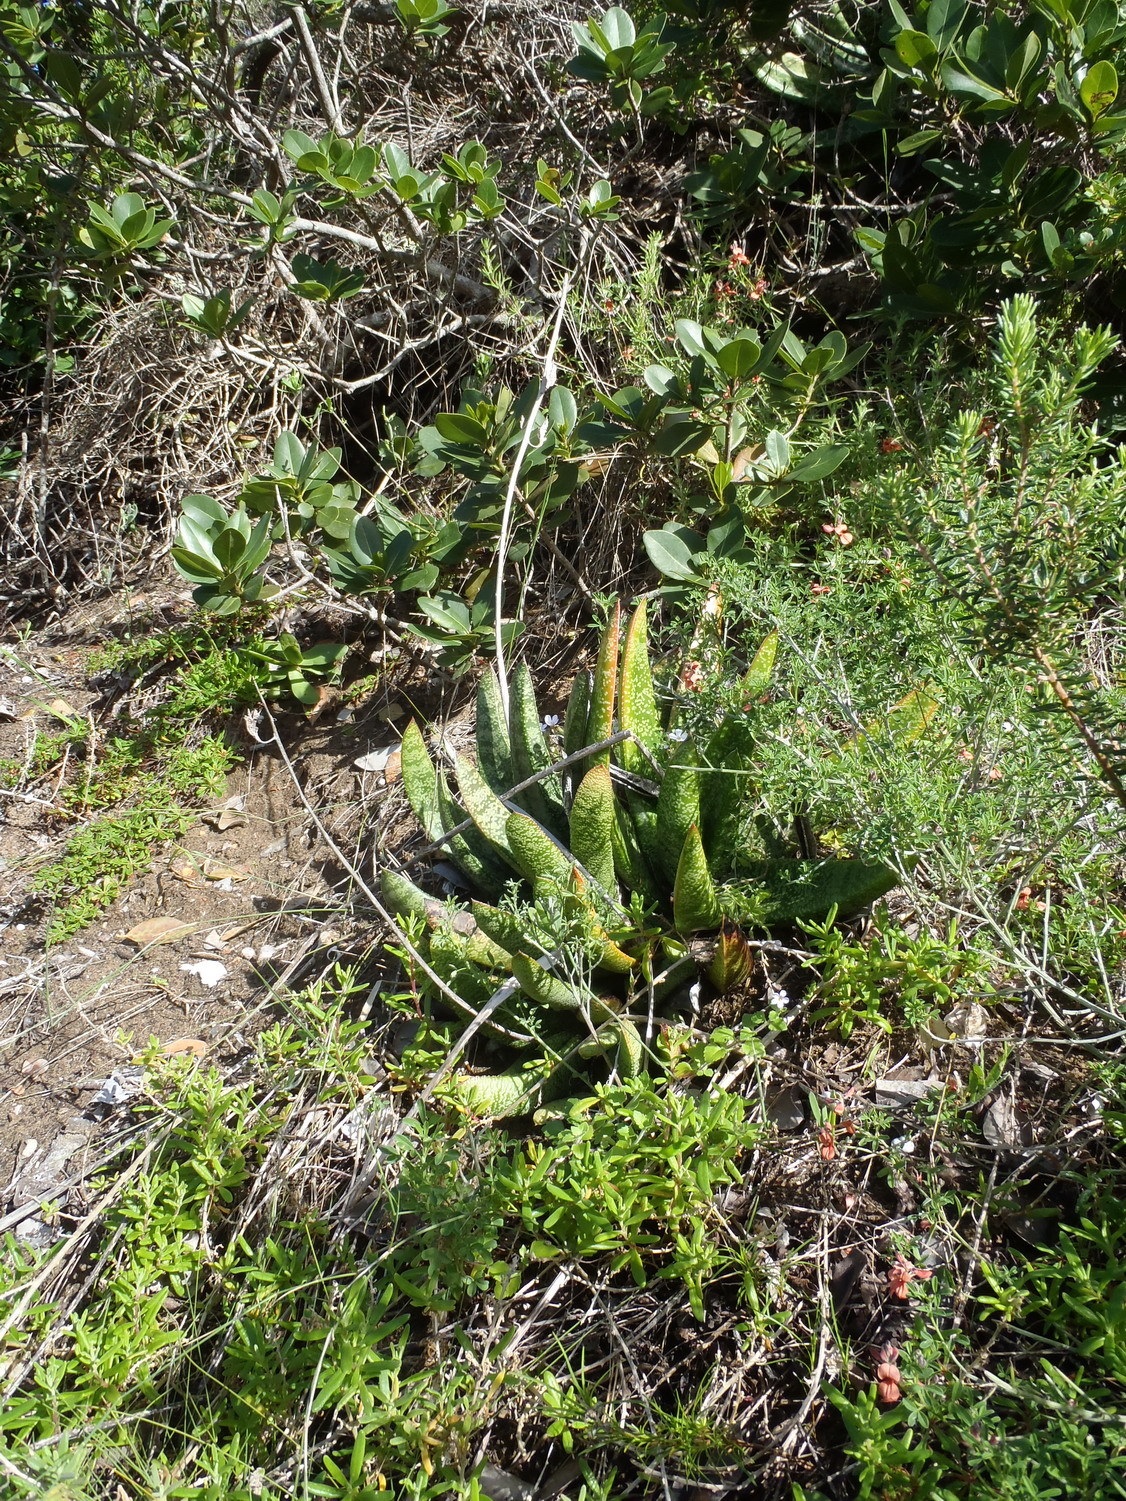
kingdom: Plantae
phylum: Tracheophyta
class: Liliopsida
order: Asparagales
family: Asphodelaceae
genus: Gasteria
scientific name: Gasteria acinacifolia
